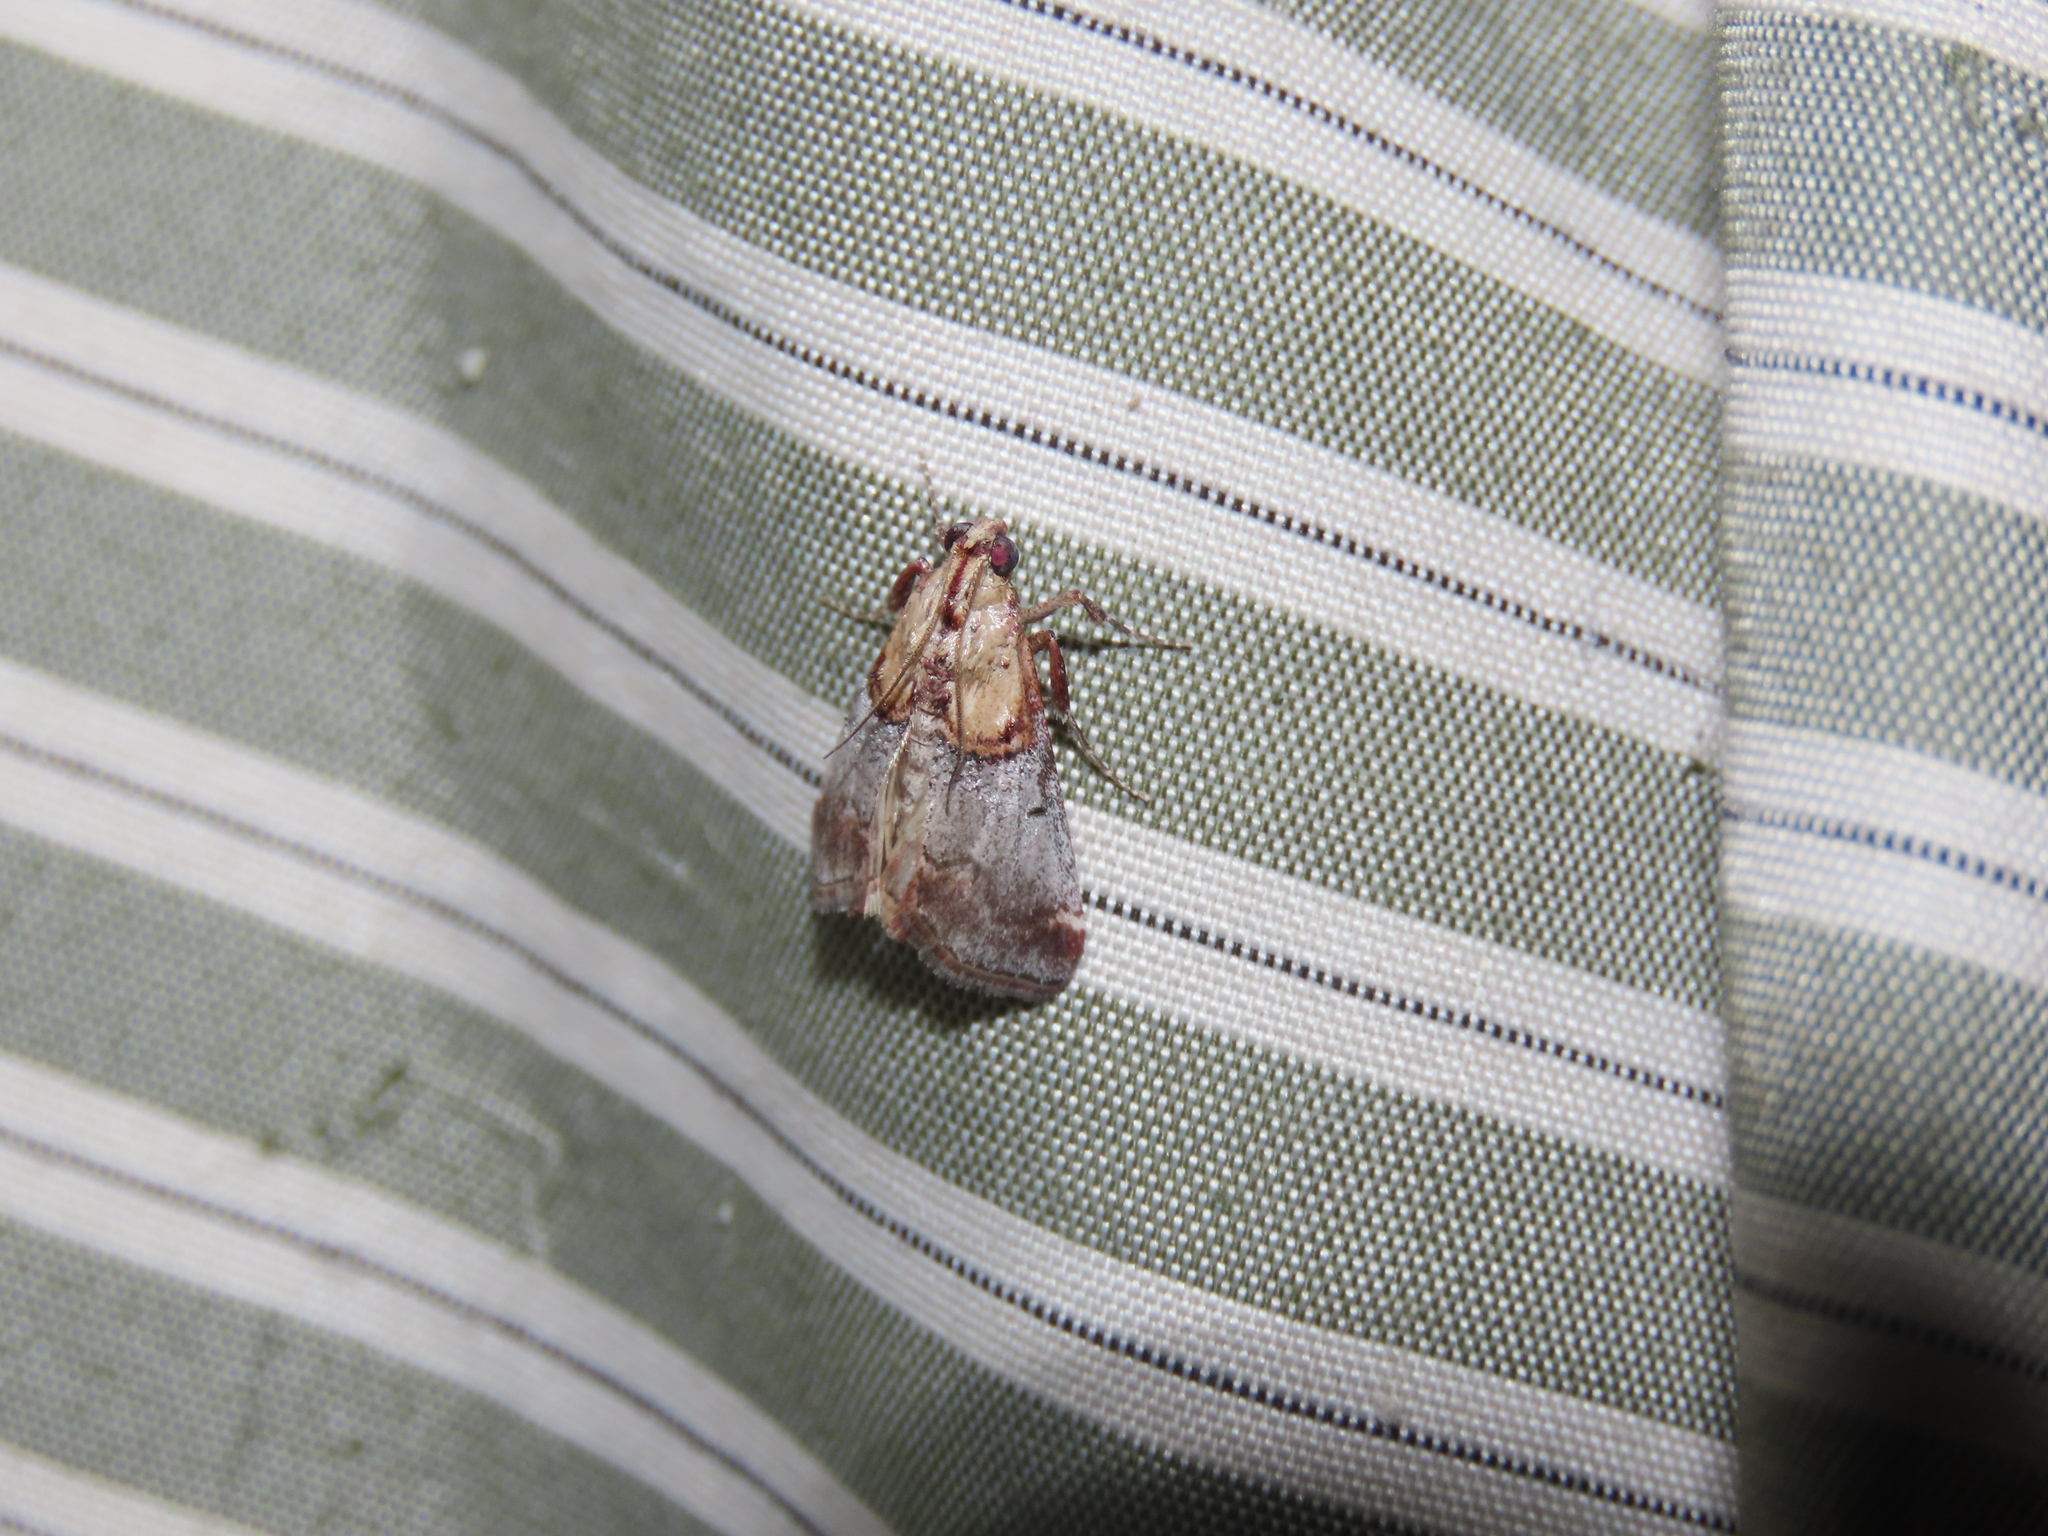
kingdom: Animalia
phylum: Arthropoda
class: Insecta
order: Lepidoptera
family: Pyralidae
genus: Cacozelia
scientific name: Cacozelia basiochrealis
